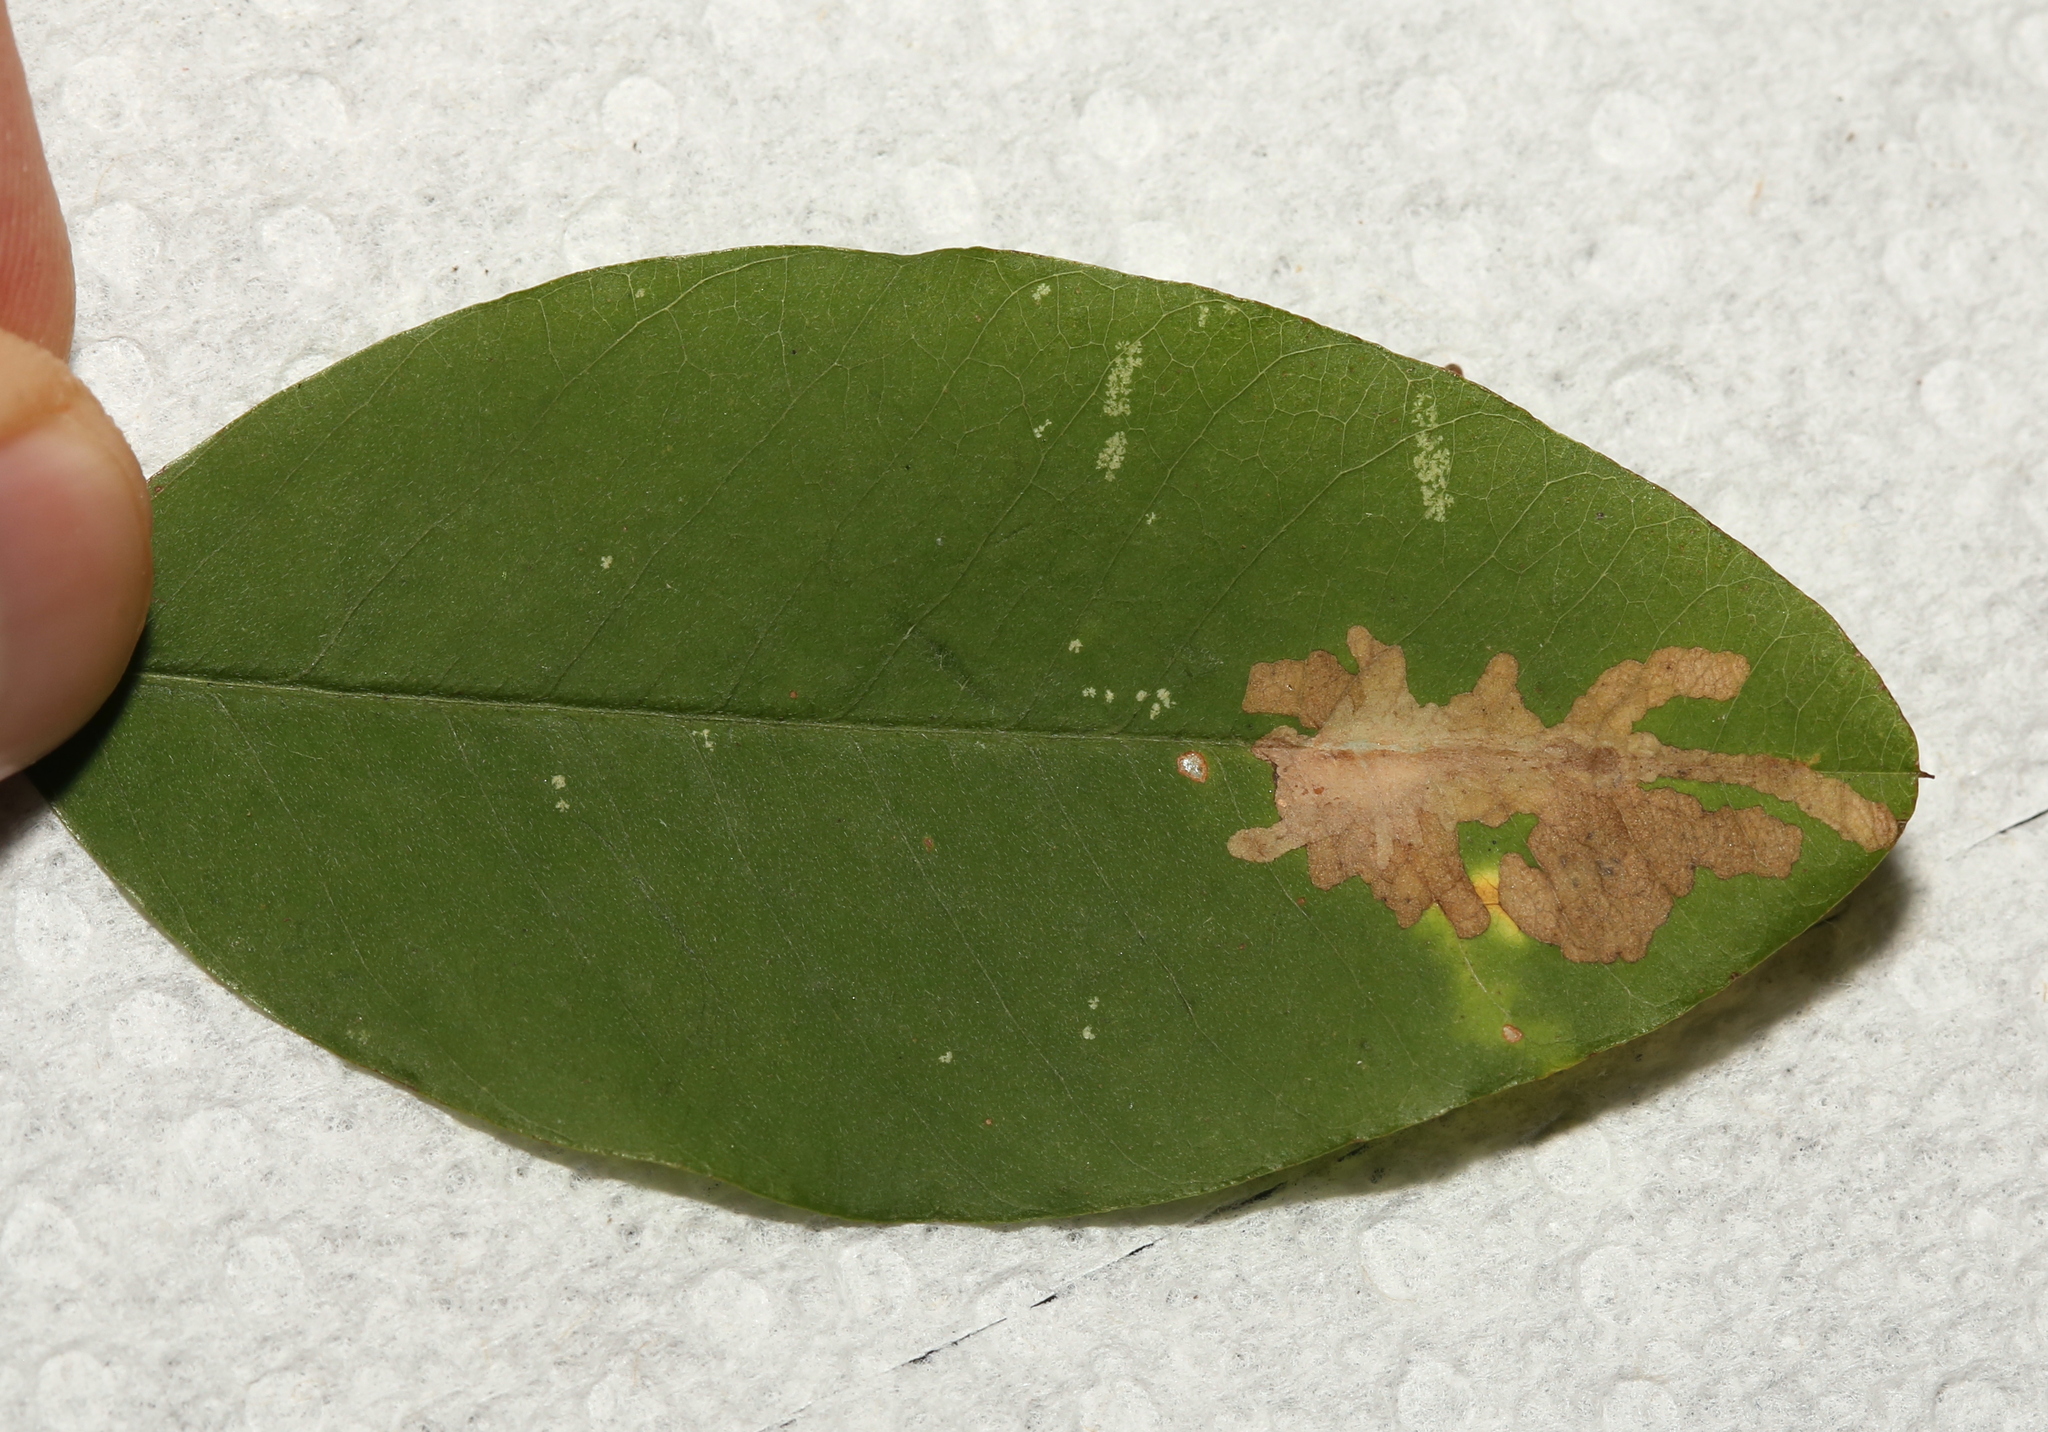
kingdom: Animalia
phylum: Arthropoda
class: Insecta
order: Lepidoptera
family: Gracillariidae
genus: Parectopa
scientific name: Parectopa lespedezaefoliella
